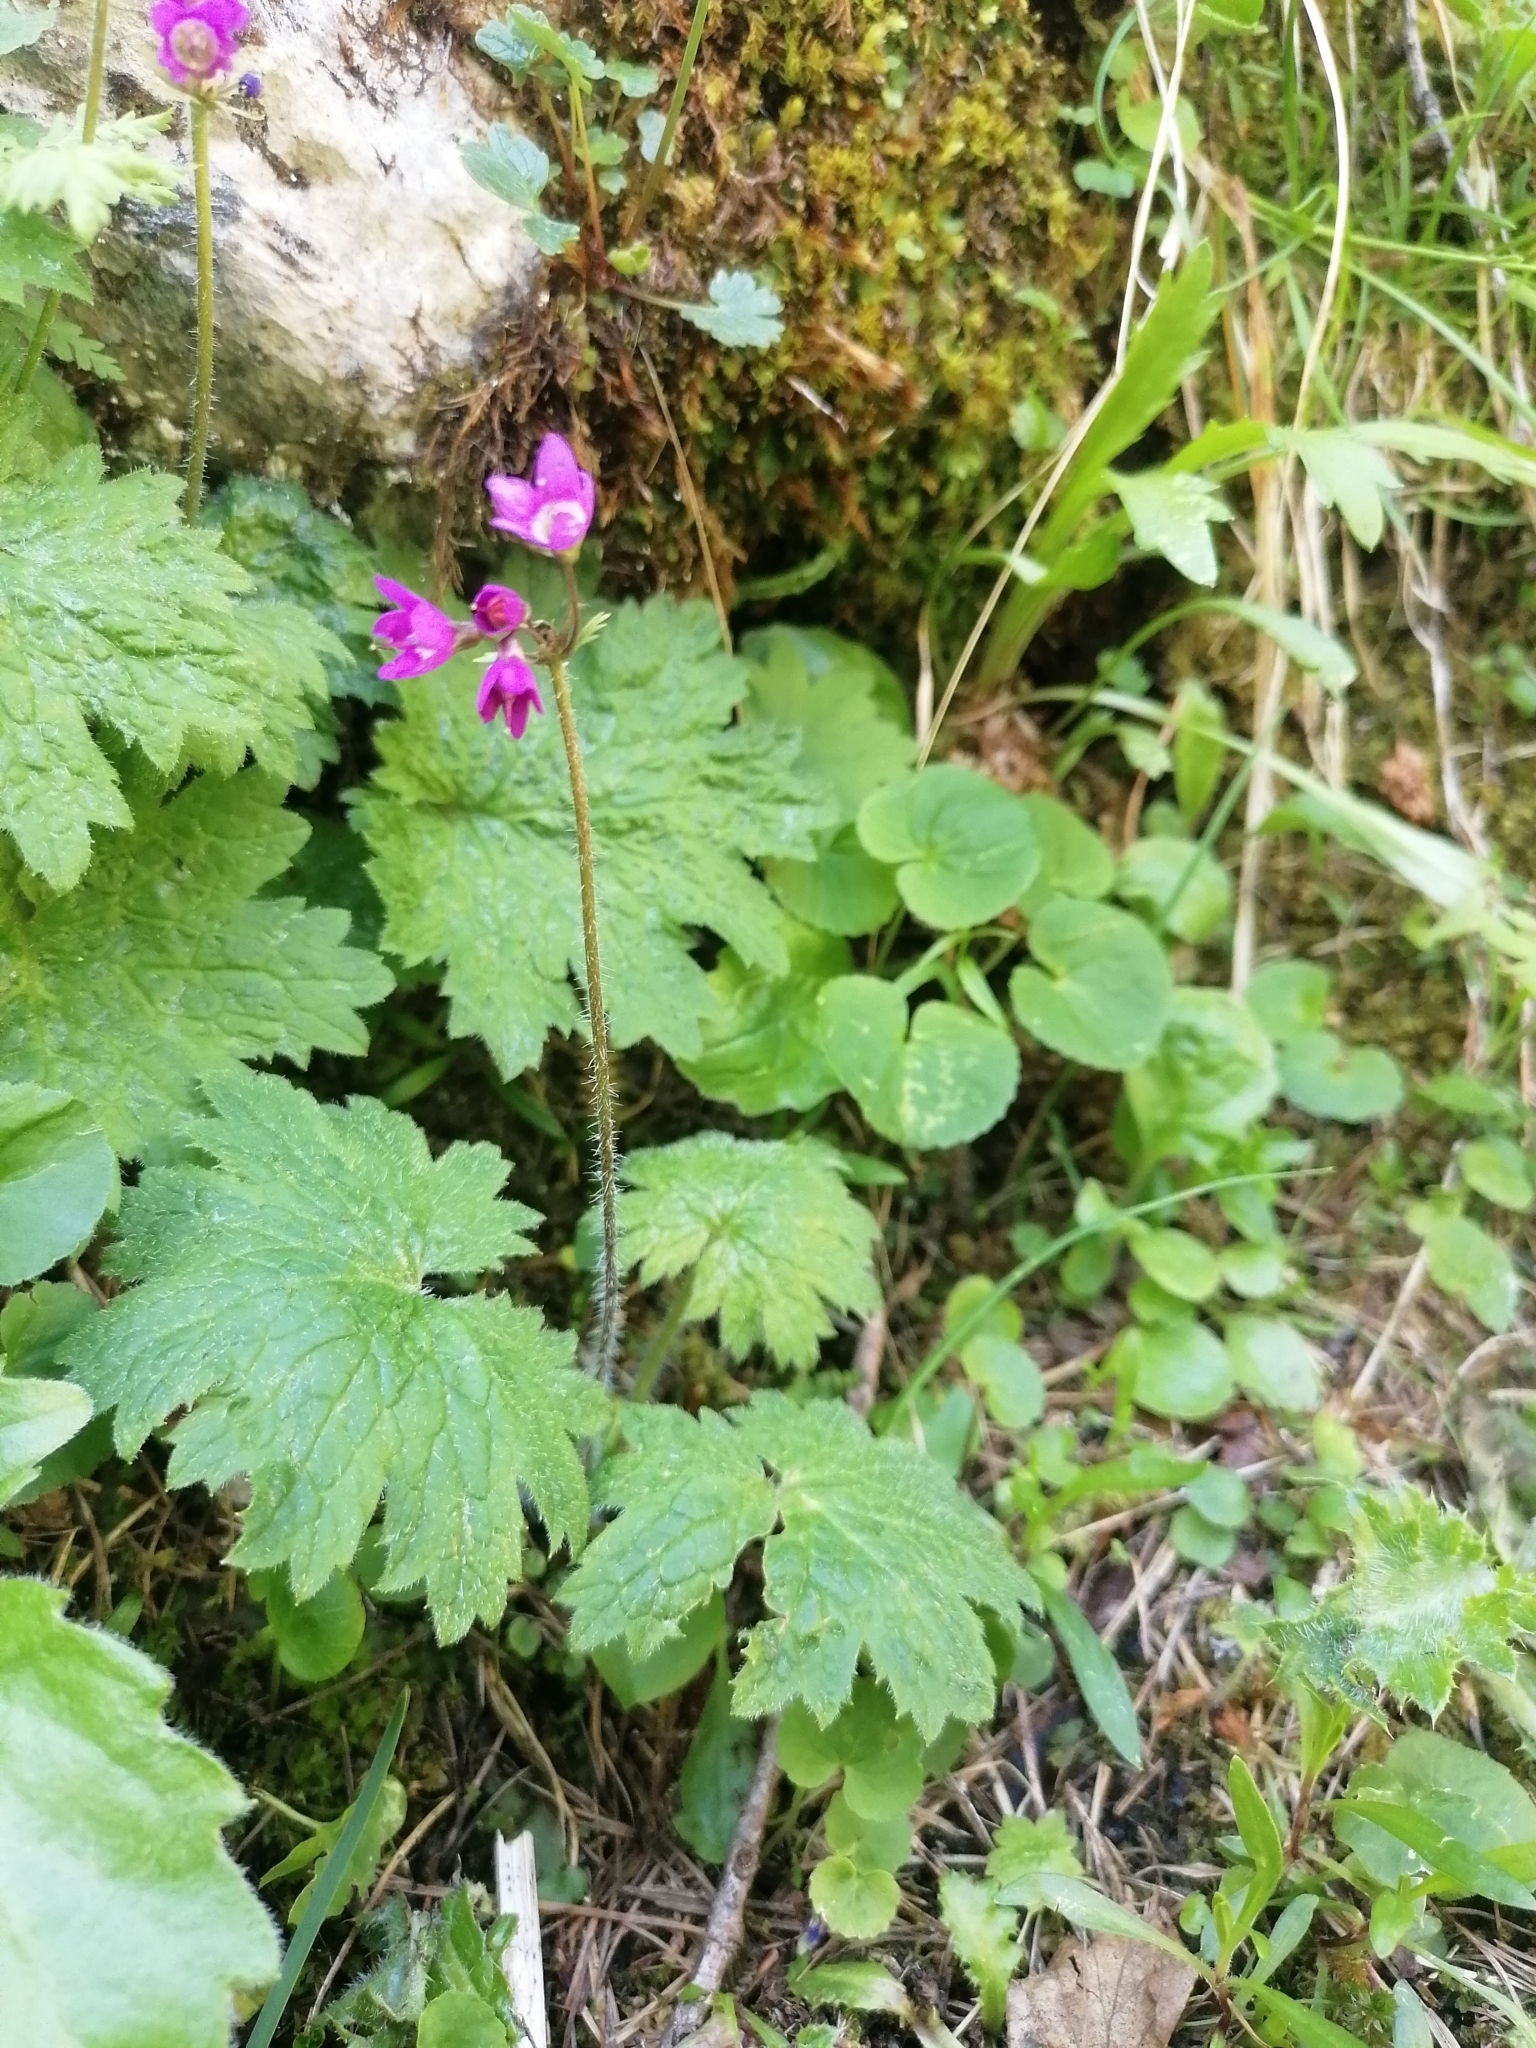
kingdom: Plantae
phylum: Tracheophyta
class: Magnoliopsida
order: Ericales
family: Primulaceae
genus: Primula
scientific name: Primula matthioli
